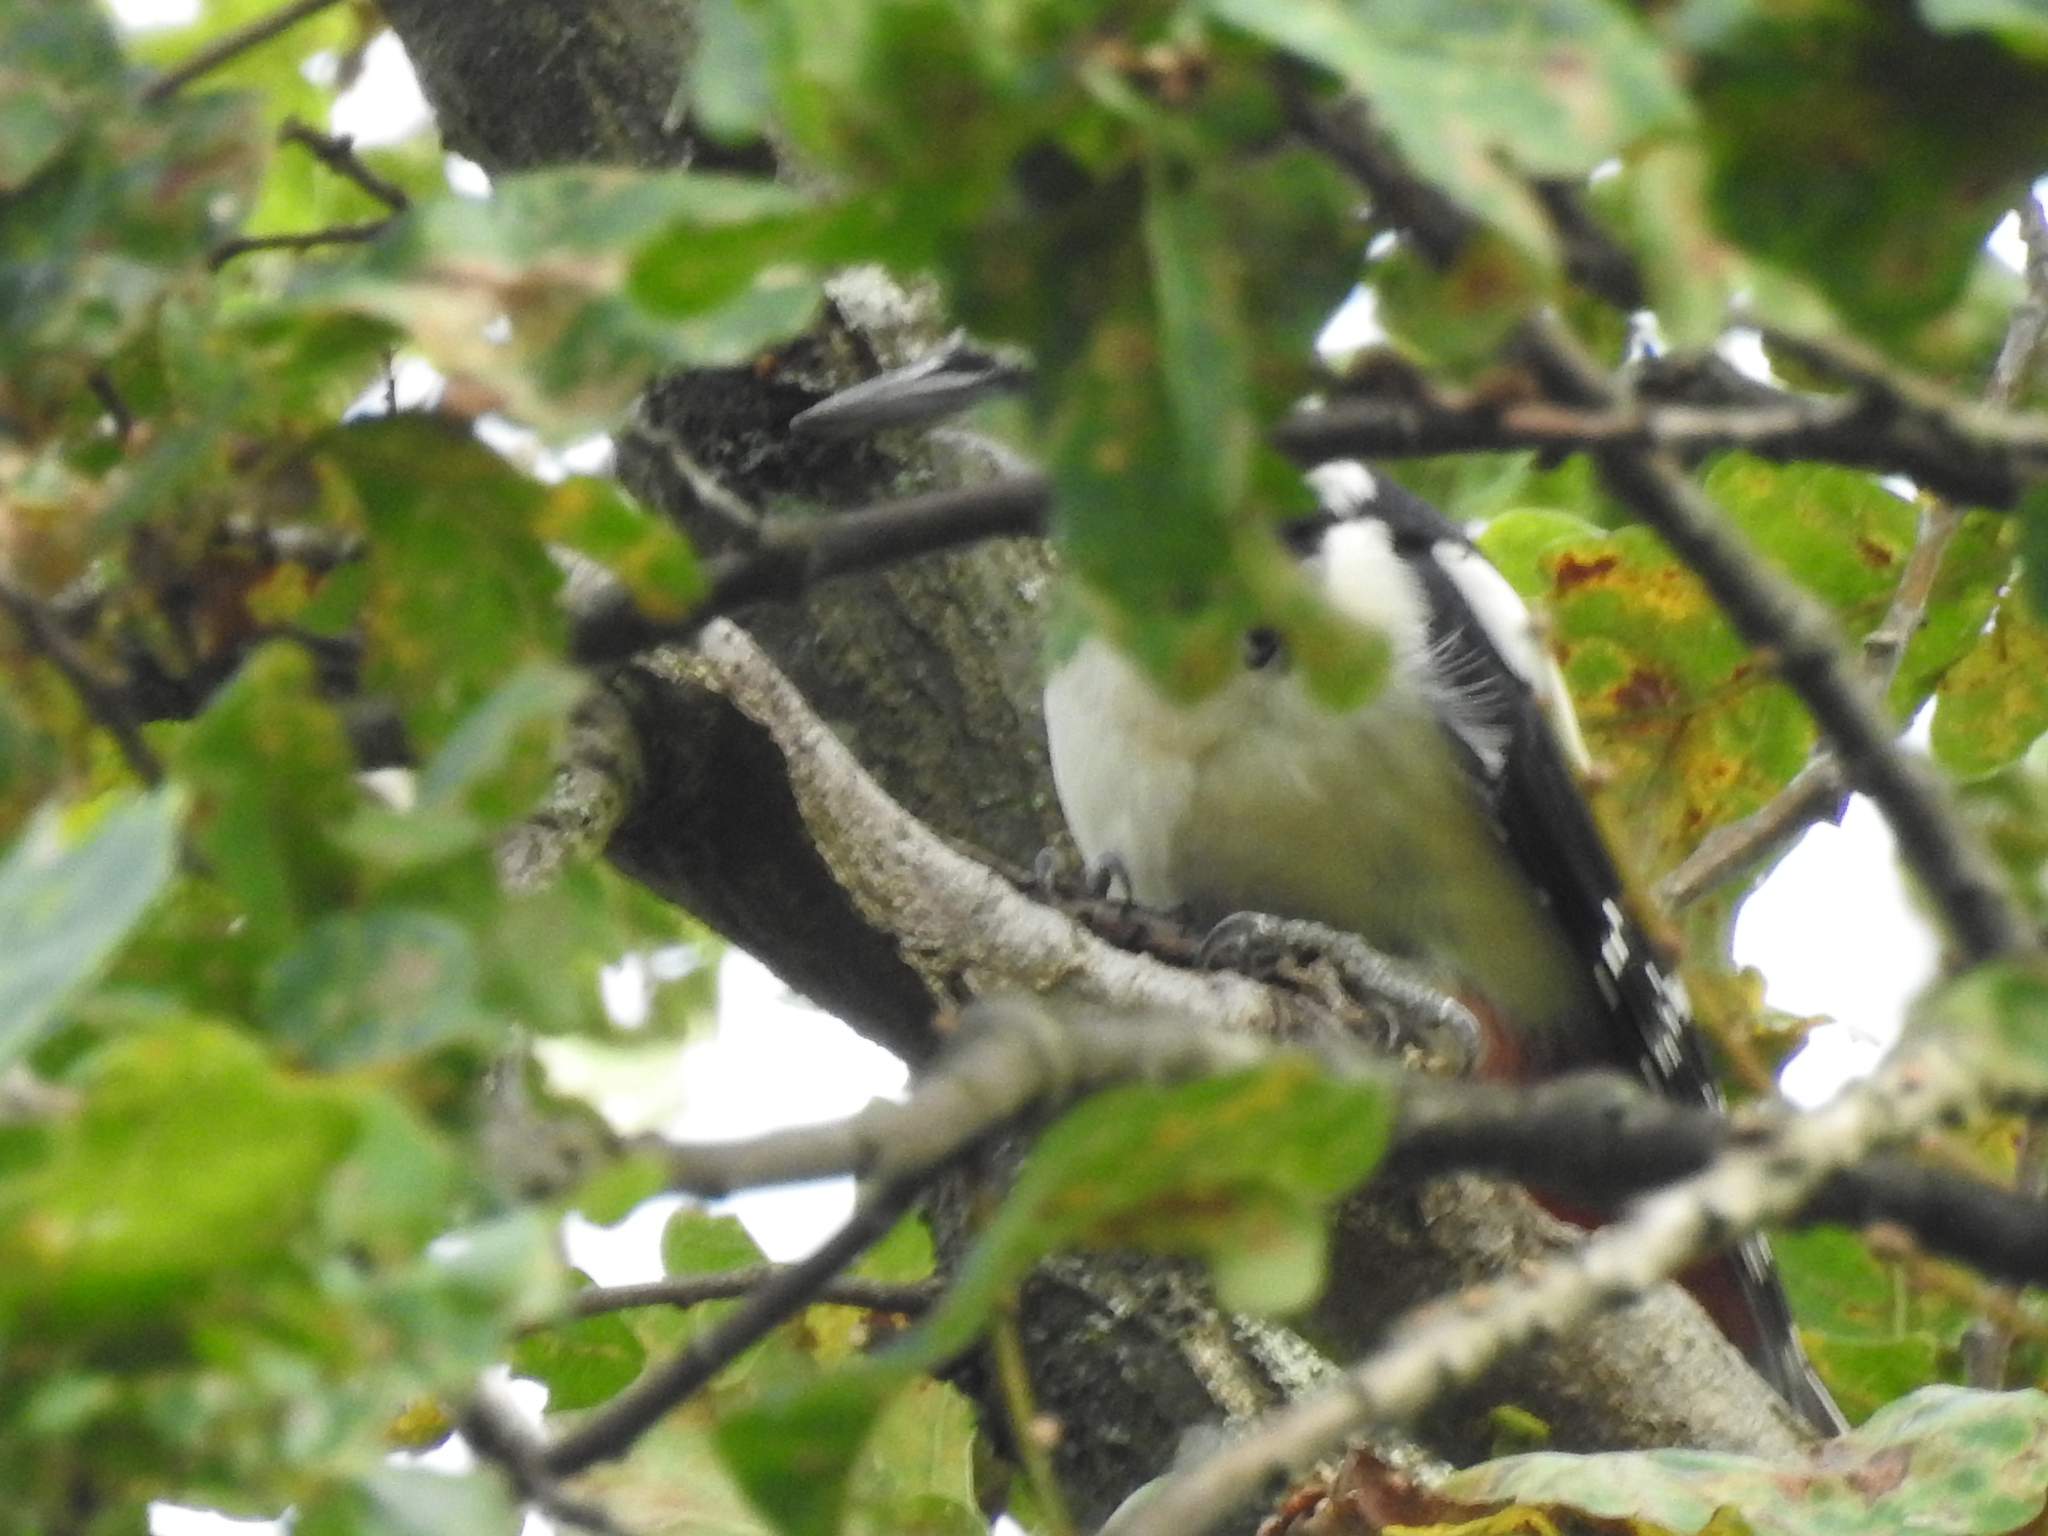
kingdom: Animalia
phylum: Chordata
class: Aves
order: Piciformes
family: Picidae
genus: Dendrocopos
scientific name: Dendrocopos major
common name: Great spotted woodpecker
